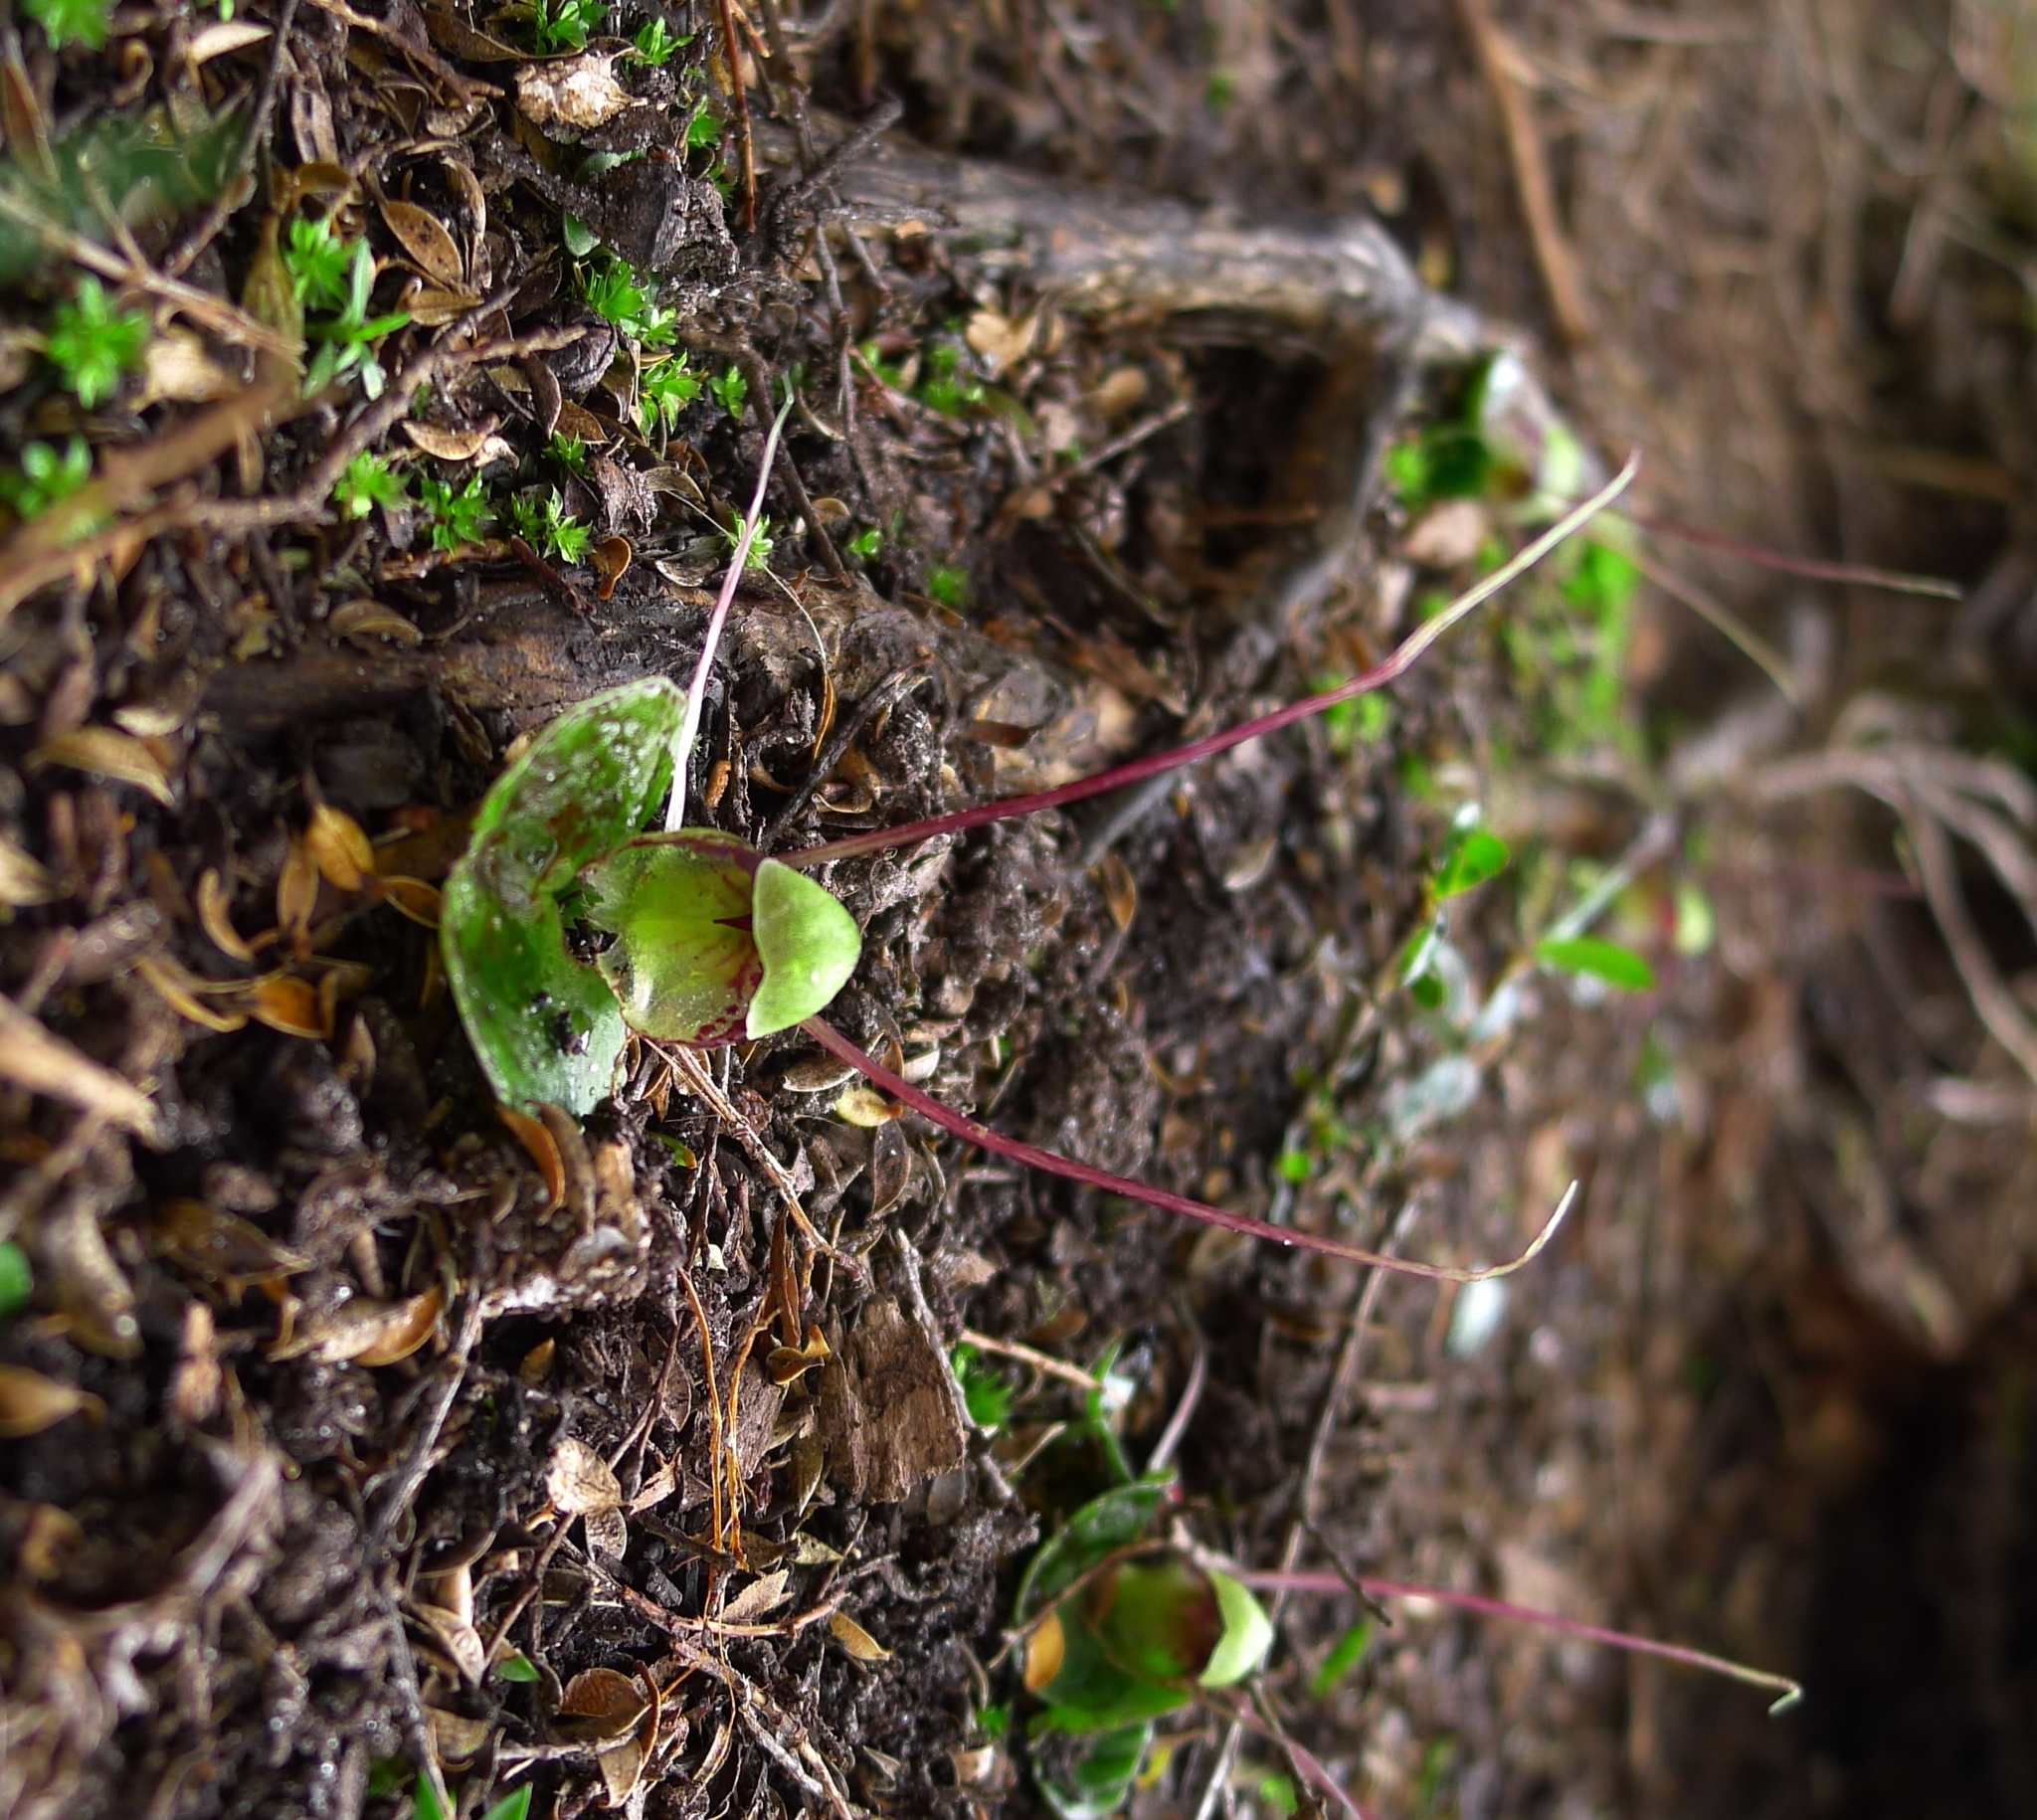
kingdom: Plantae
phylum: Tracheophyta
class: Liliopsida
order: Asparagales
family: Orchidaceae
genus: Corybas
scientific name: Corybas vitreus
